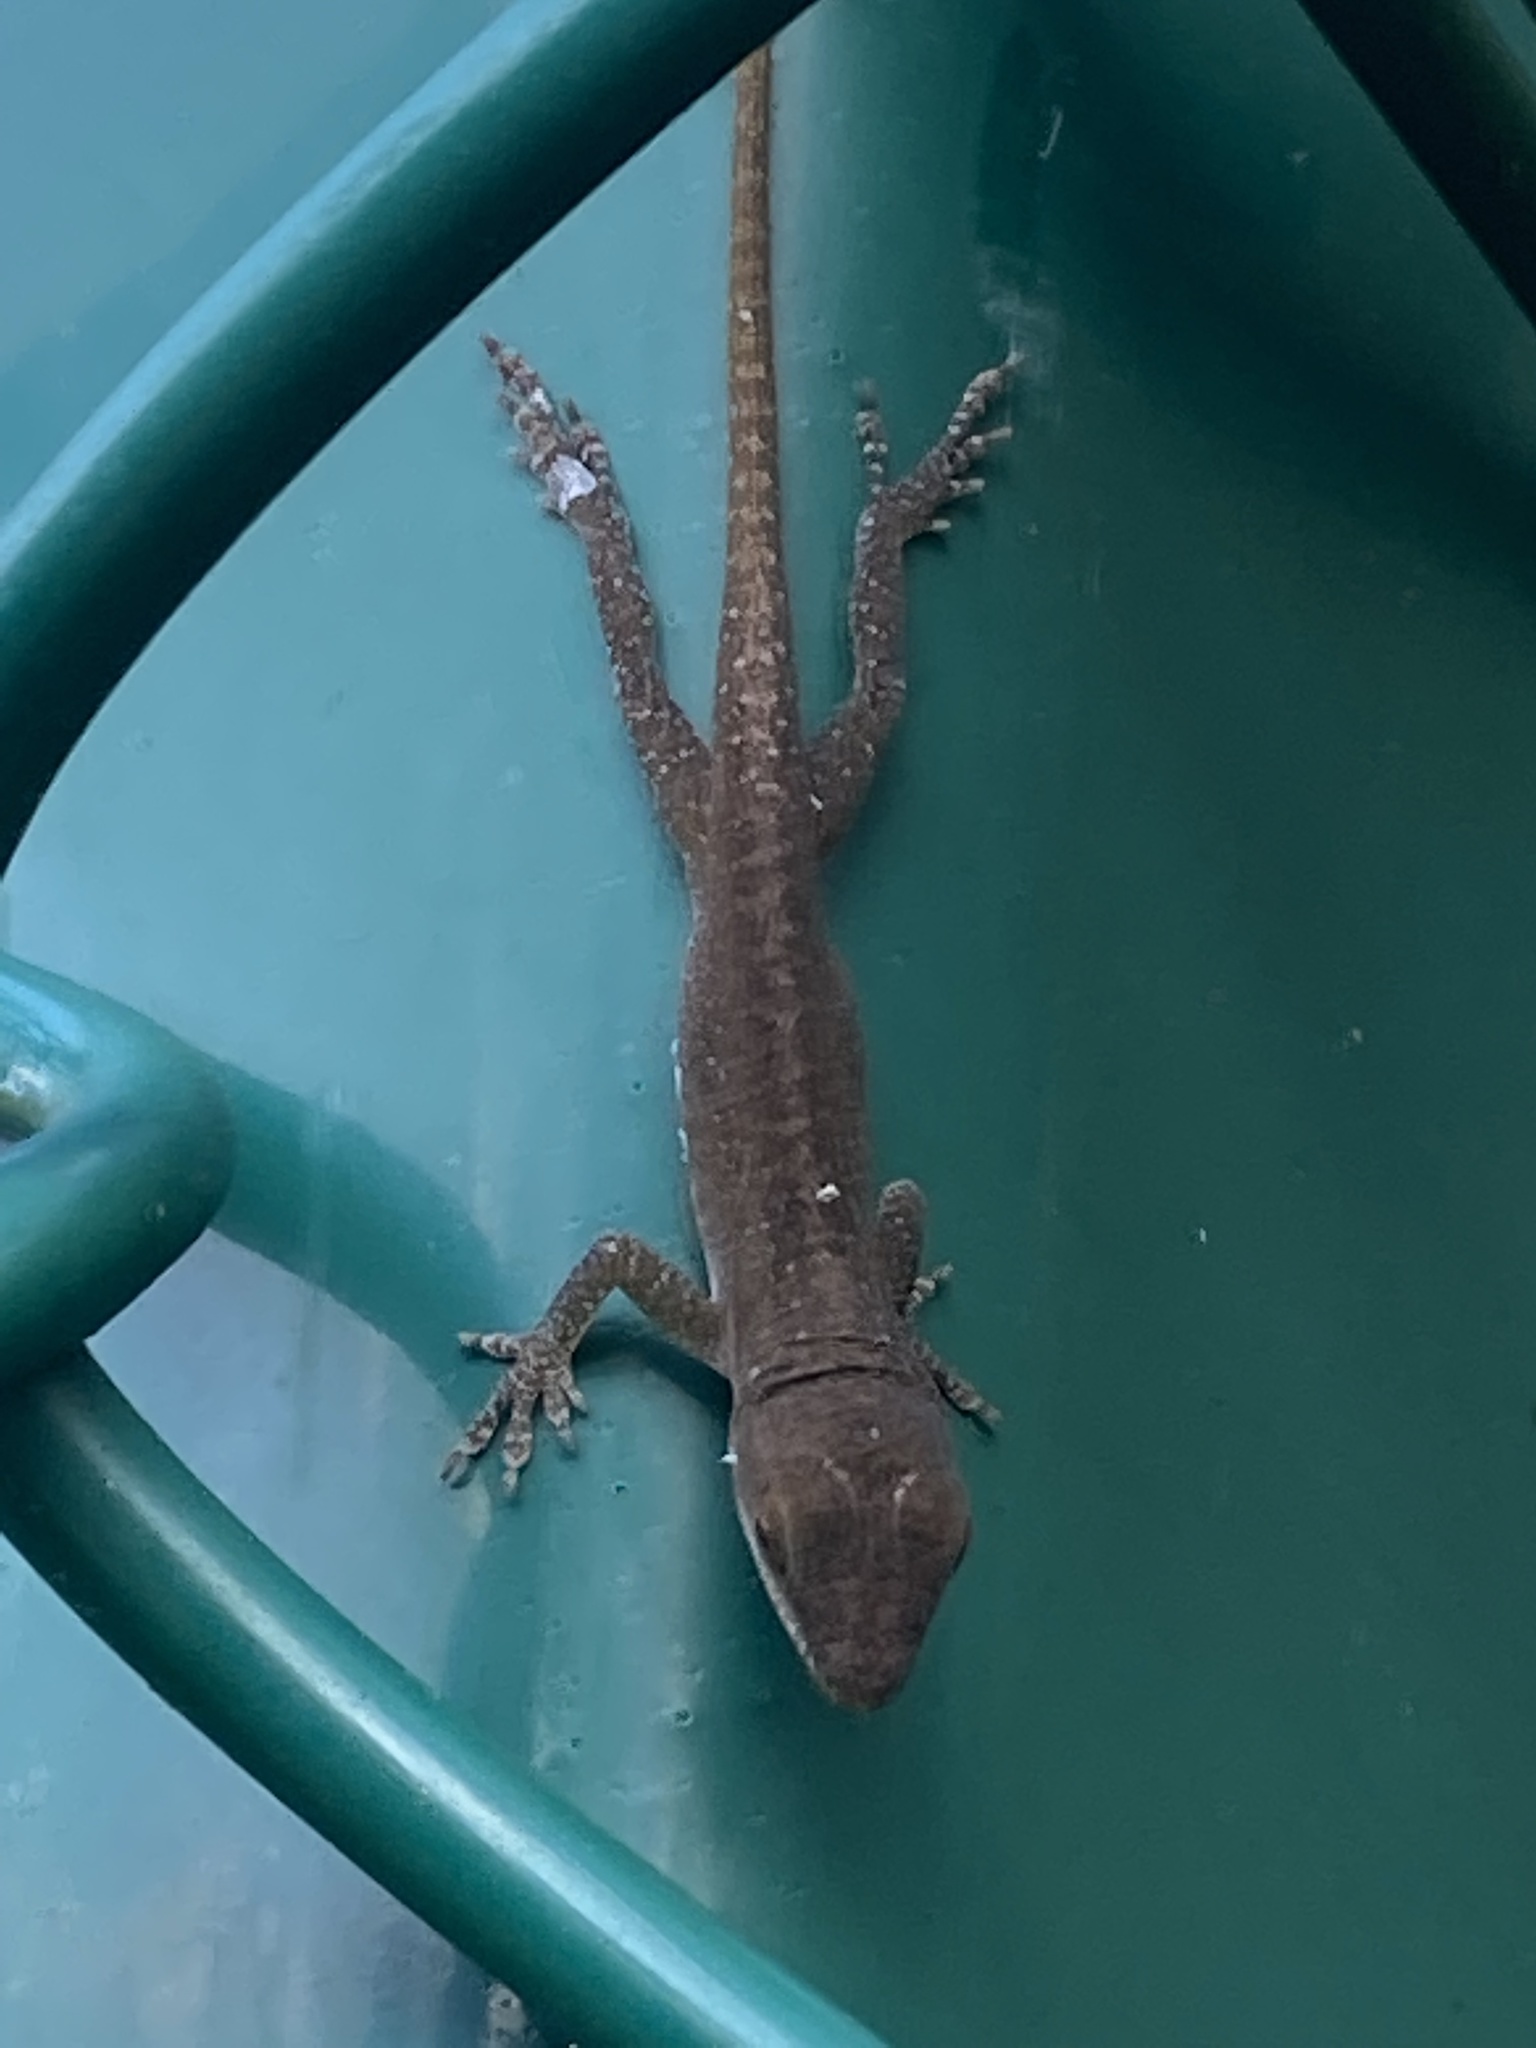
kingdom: Animalia
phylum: Chordata
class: Squamata
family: Dactyloidae
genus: Anolis
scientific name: Anolis carolinensis
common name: Green anole
